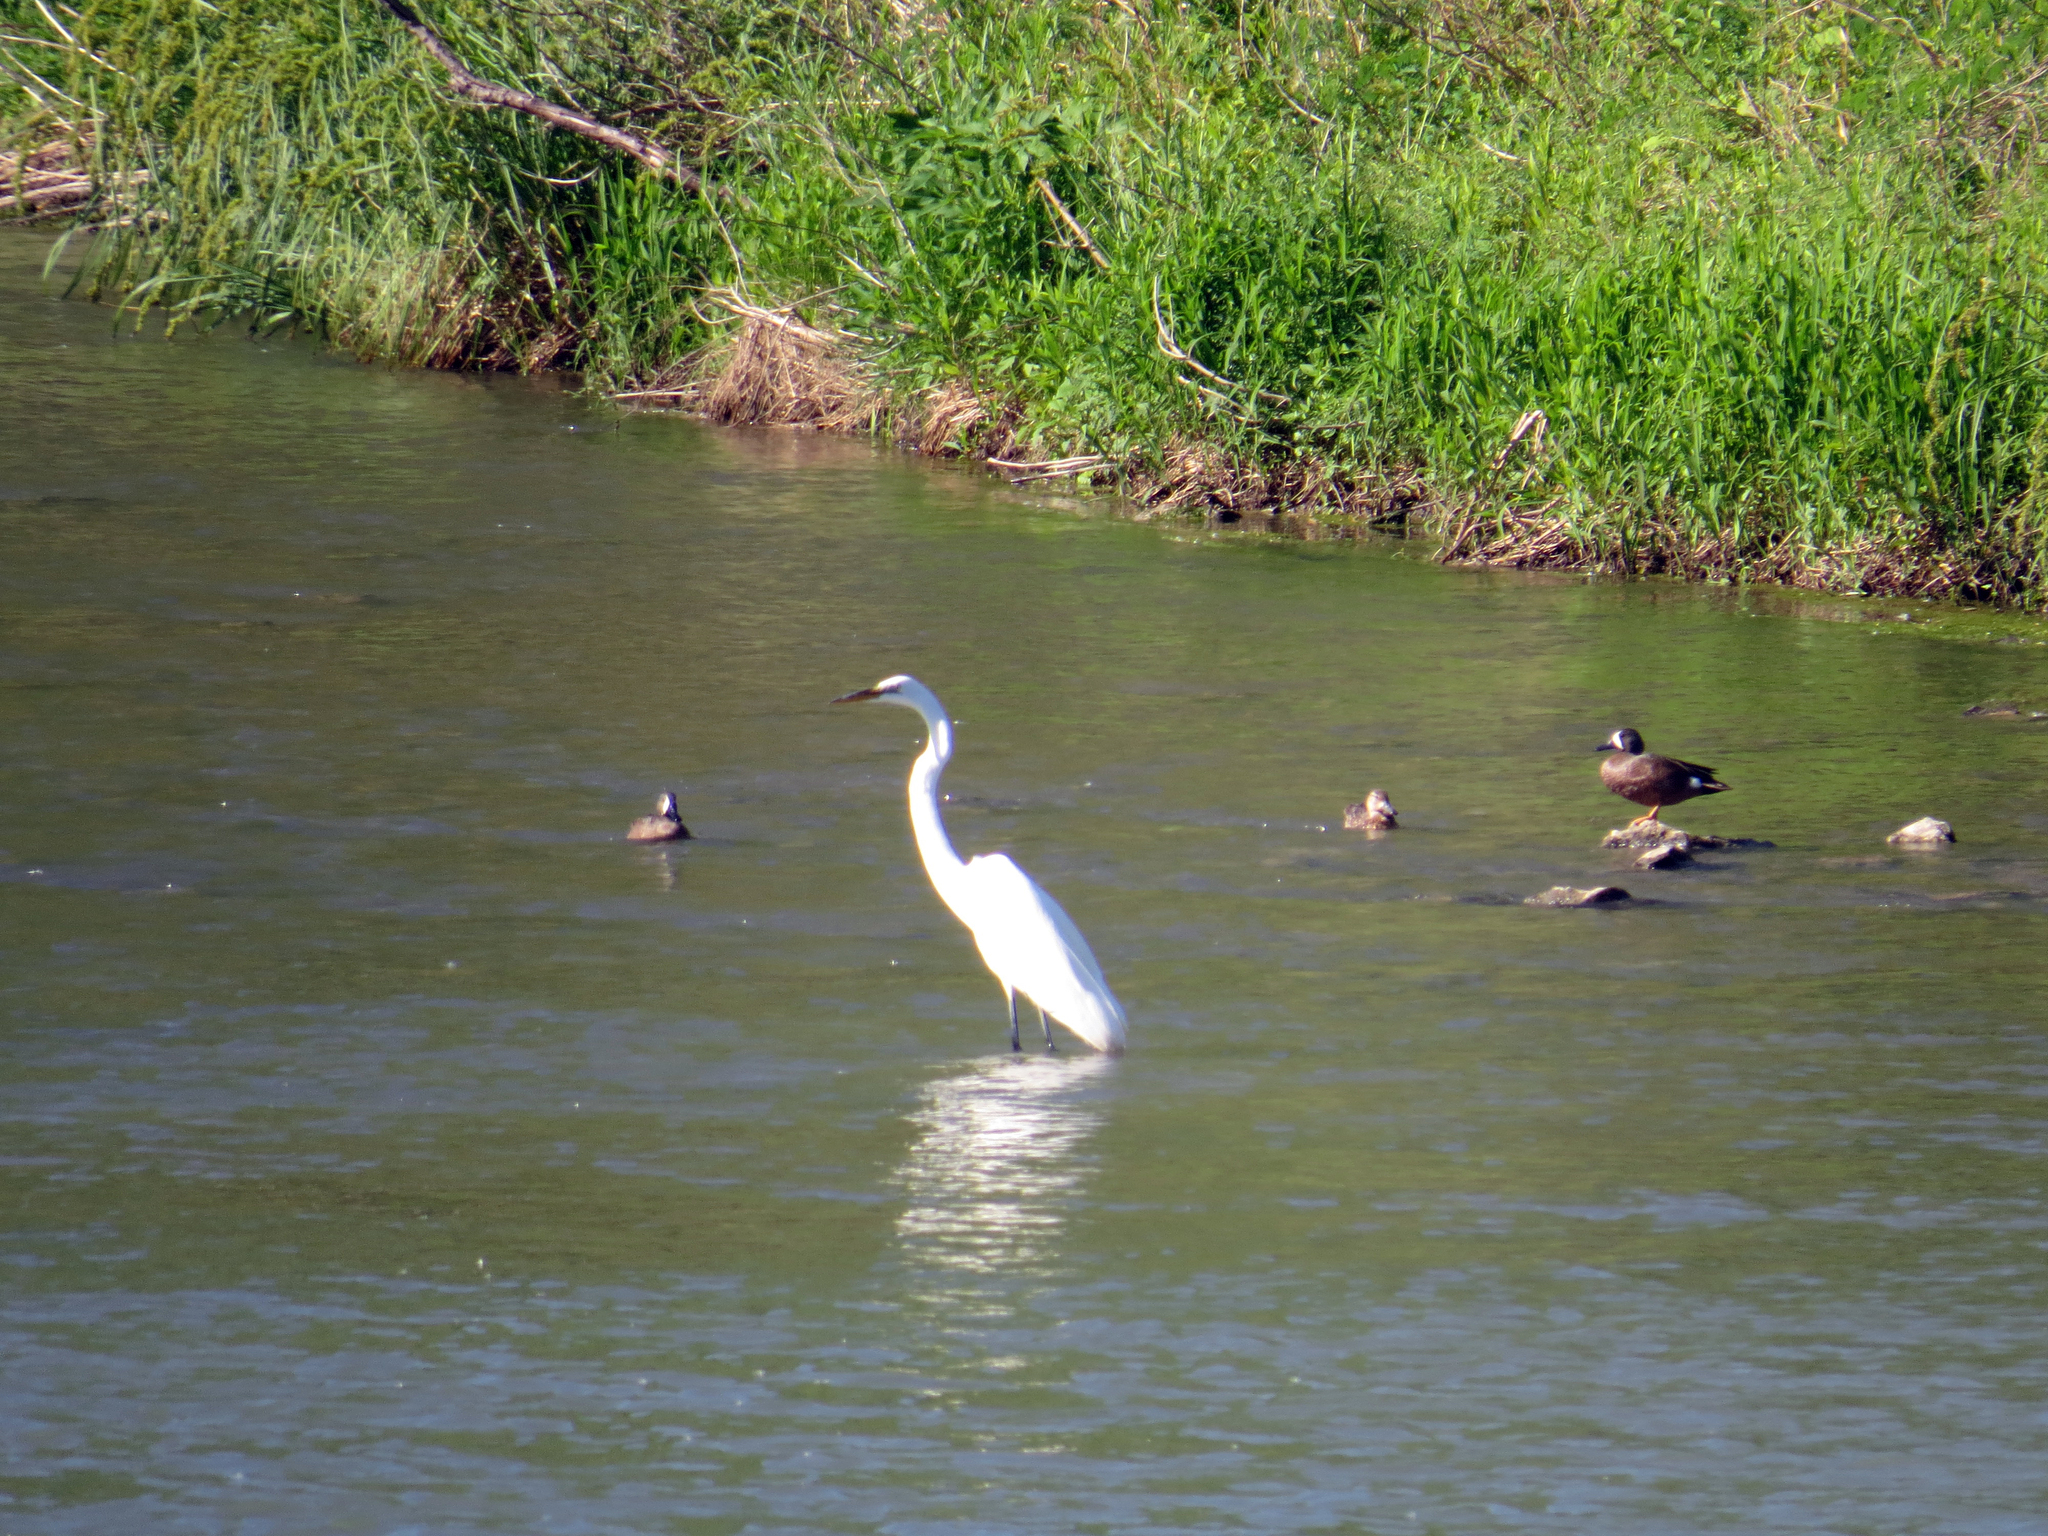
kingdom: Animalia
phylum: Chordata
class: Aves
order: Pelecaniformes
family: Ardeidae
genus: Ardea
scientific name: Ardea alba
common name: Great egret
